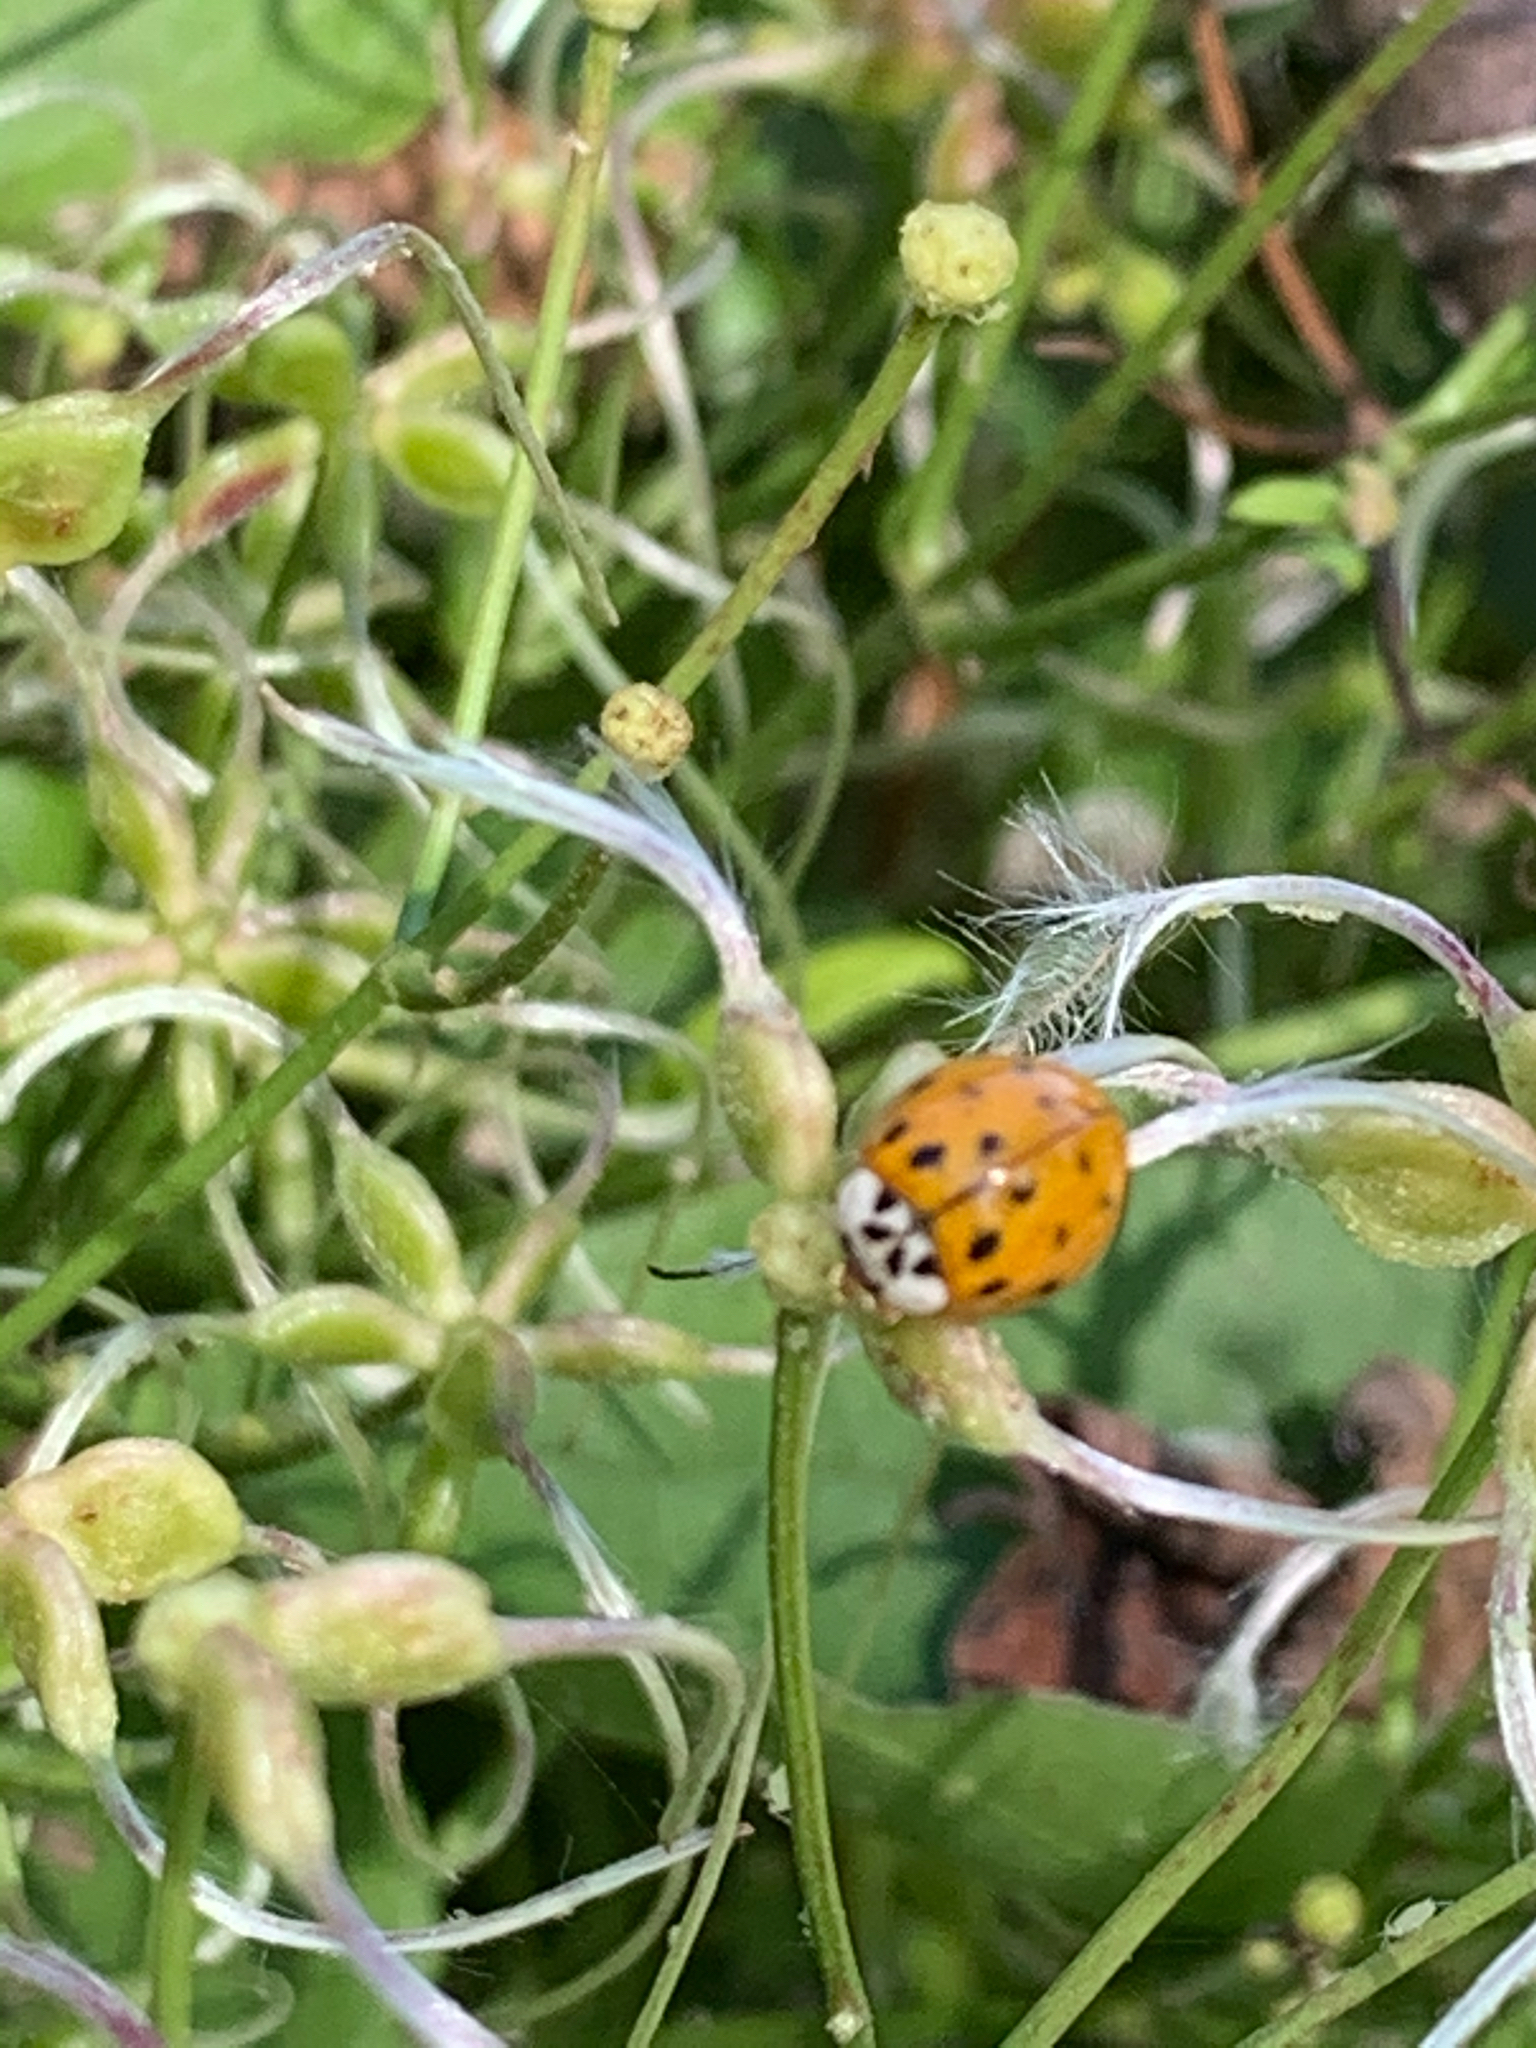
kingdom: Animalia
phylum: Arthropoda
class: Insecta
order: Coleoptera
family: Coccinellidae
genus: Harmonia
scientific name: Harmonia axyridis
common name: Harlequin ladybird
